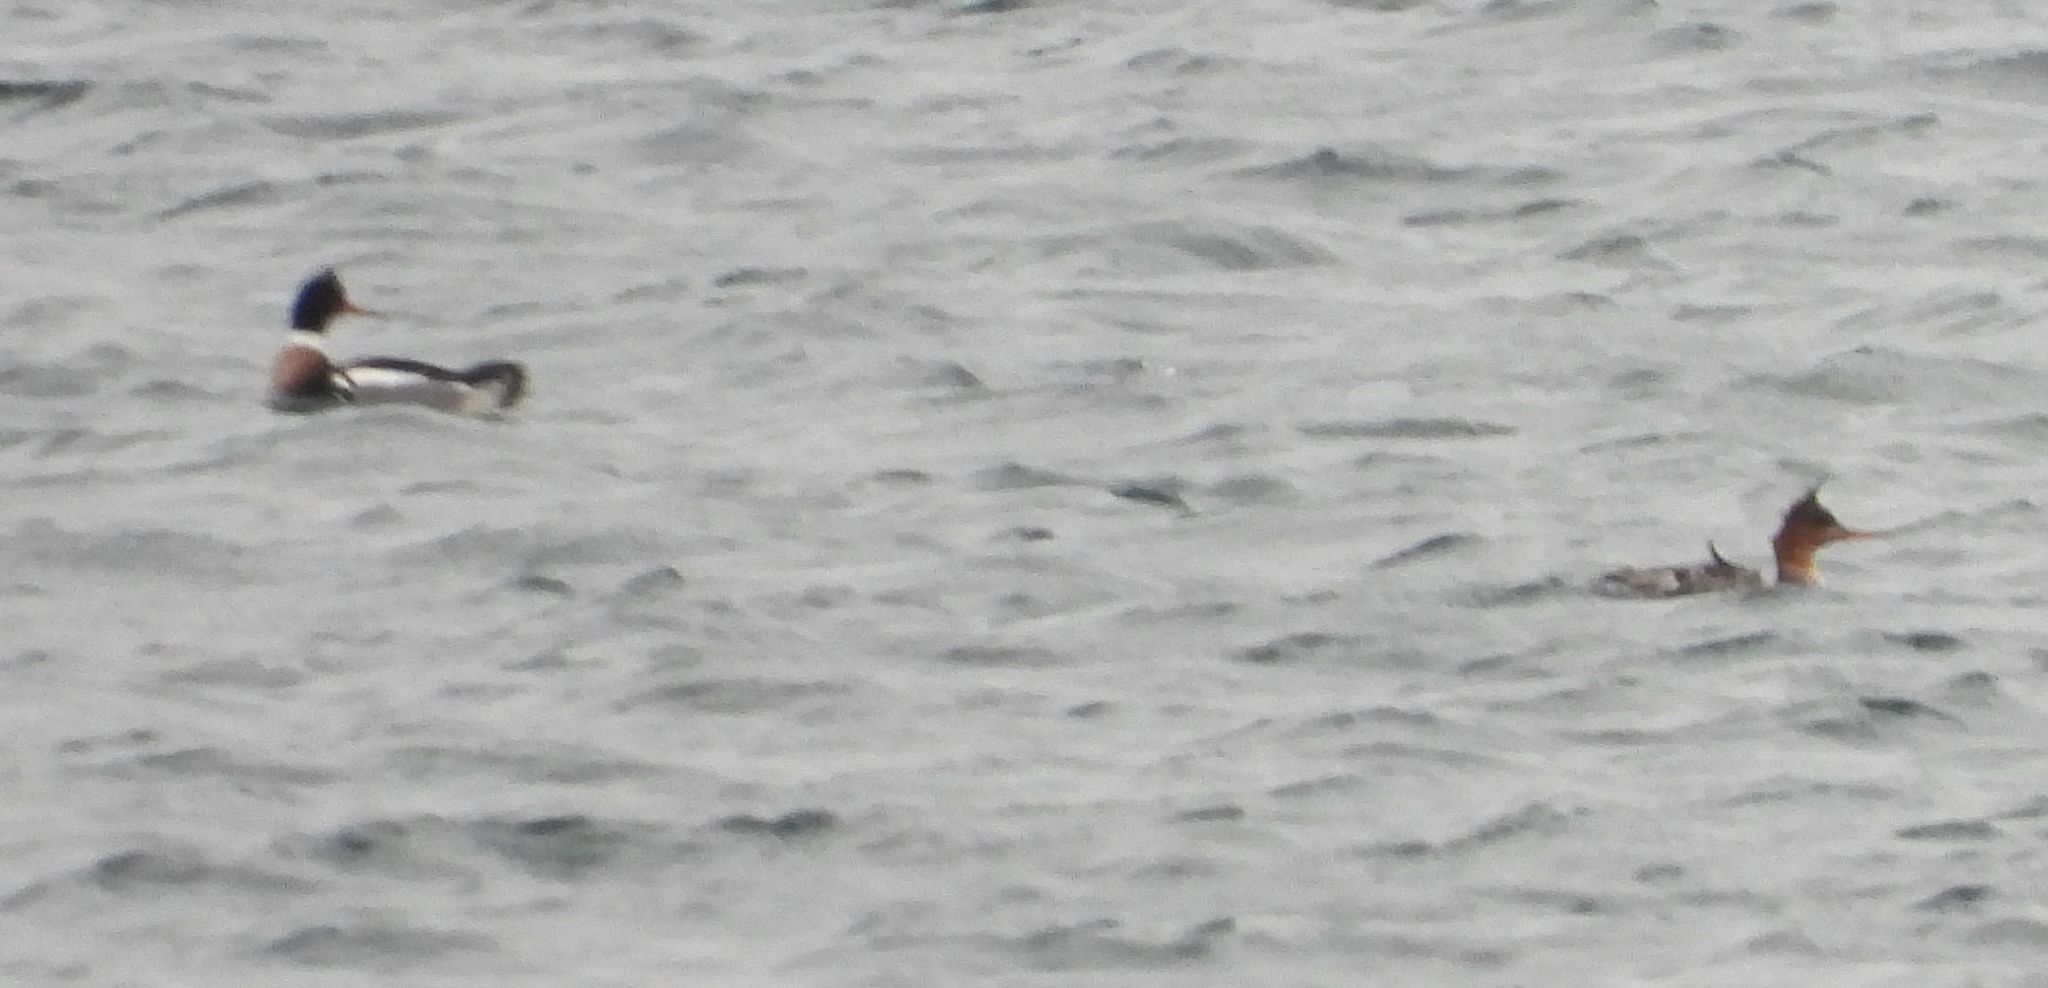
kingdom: Animalia
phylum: Chordata
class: Aves
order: Anseriformes
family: Anatidae
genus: Mergus
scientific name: Mergus serrator
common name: Red-breasted merganser
